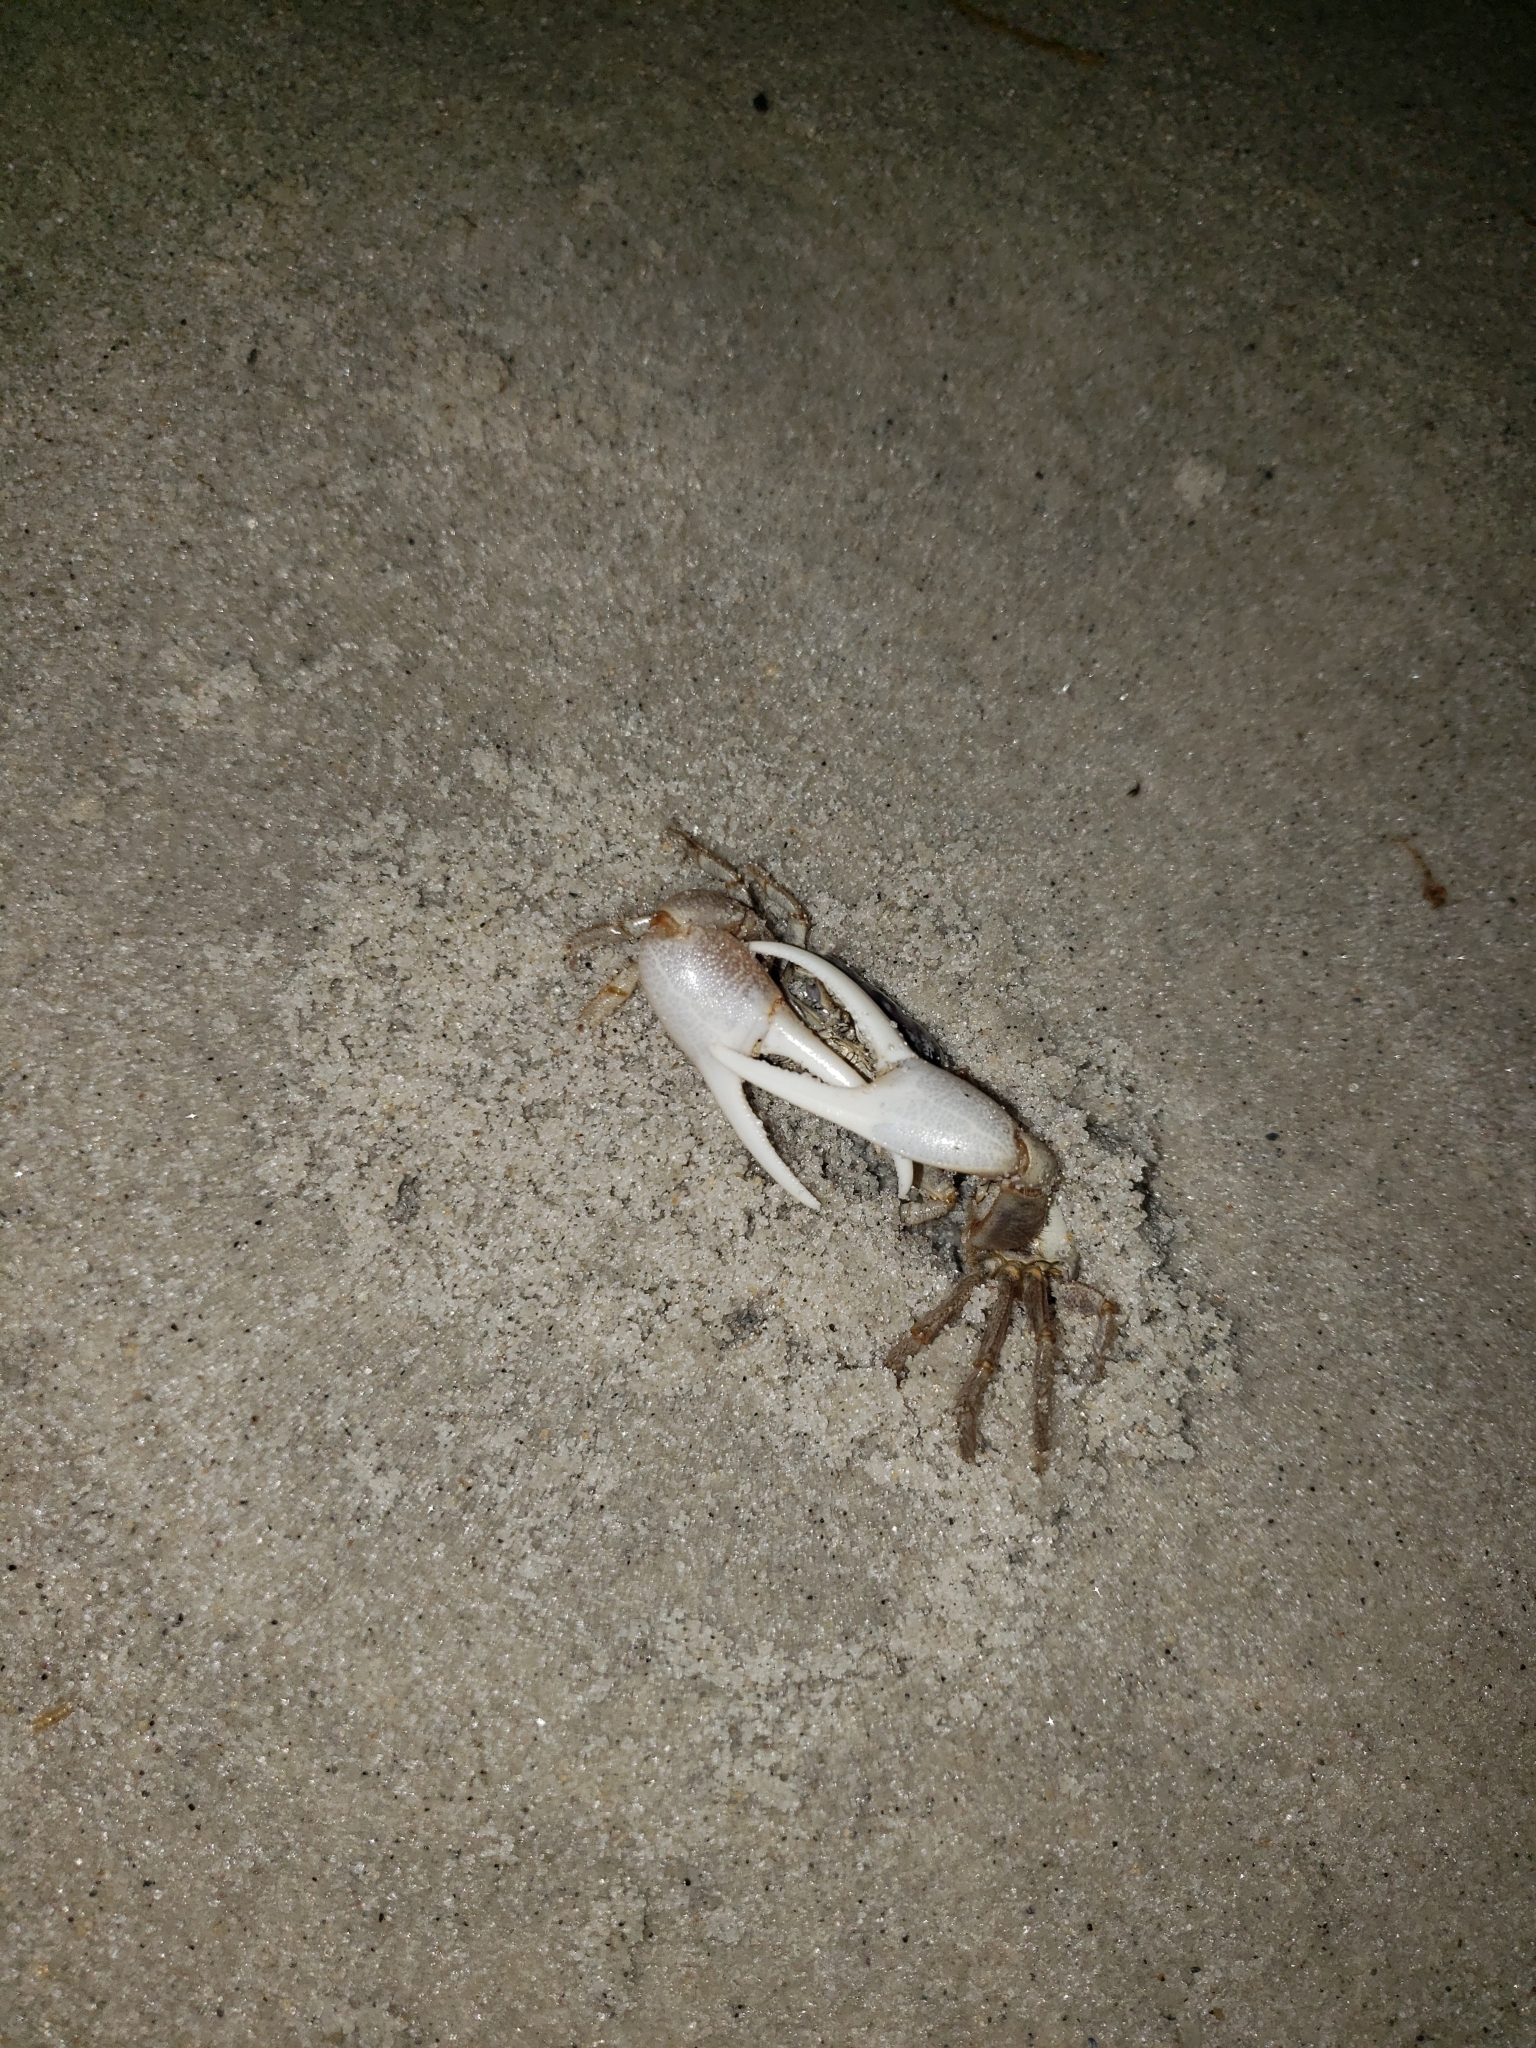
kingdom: Animalia
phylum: Arthropoda
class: Malacostraca
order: Decapoda
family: Ocypodidae
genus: Leptuca
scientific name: Leptuca pugilator
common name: Atlantic sand fiddler crab
